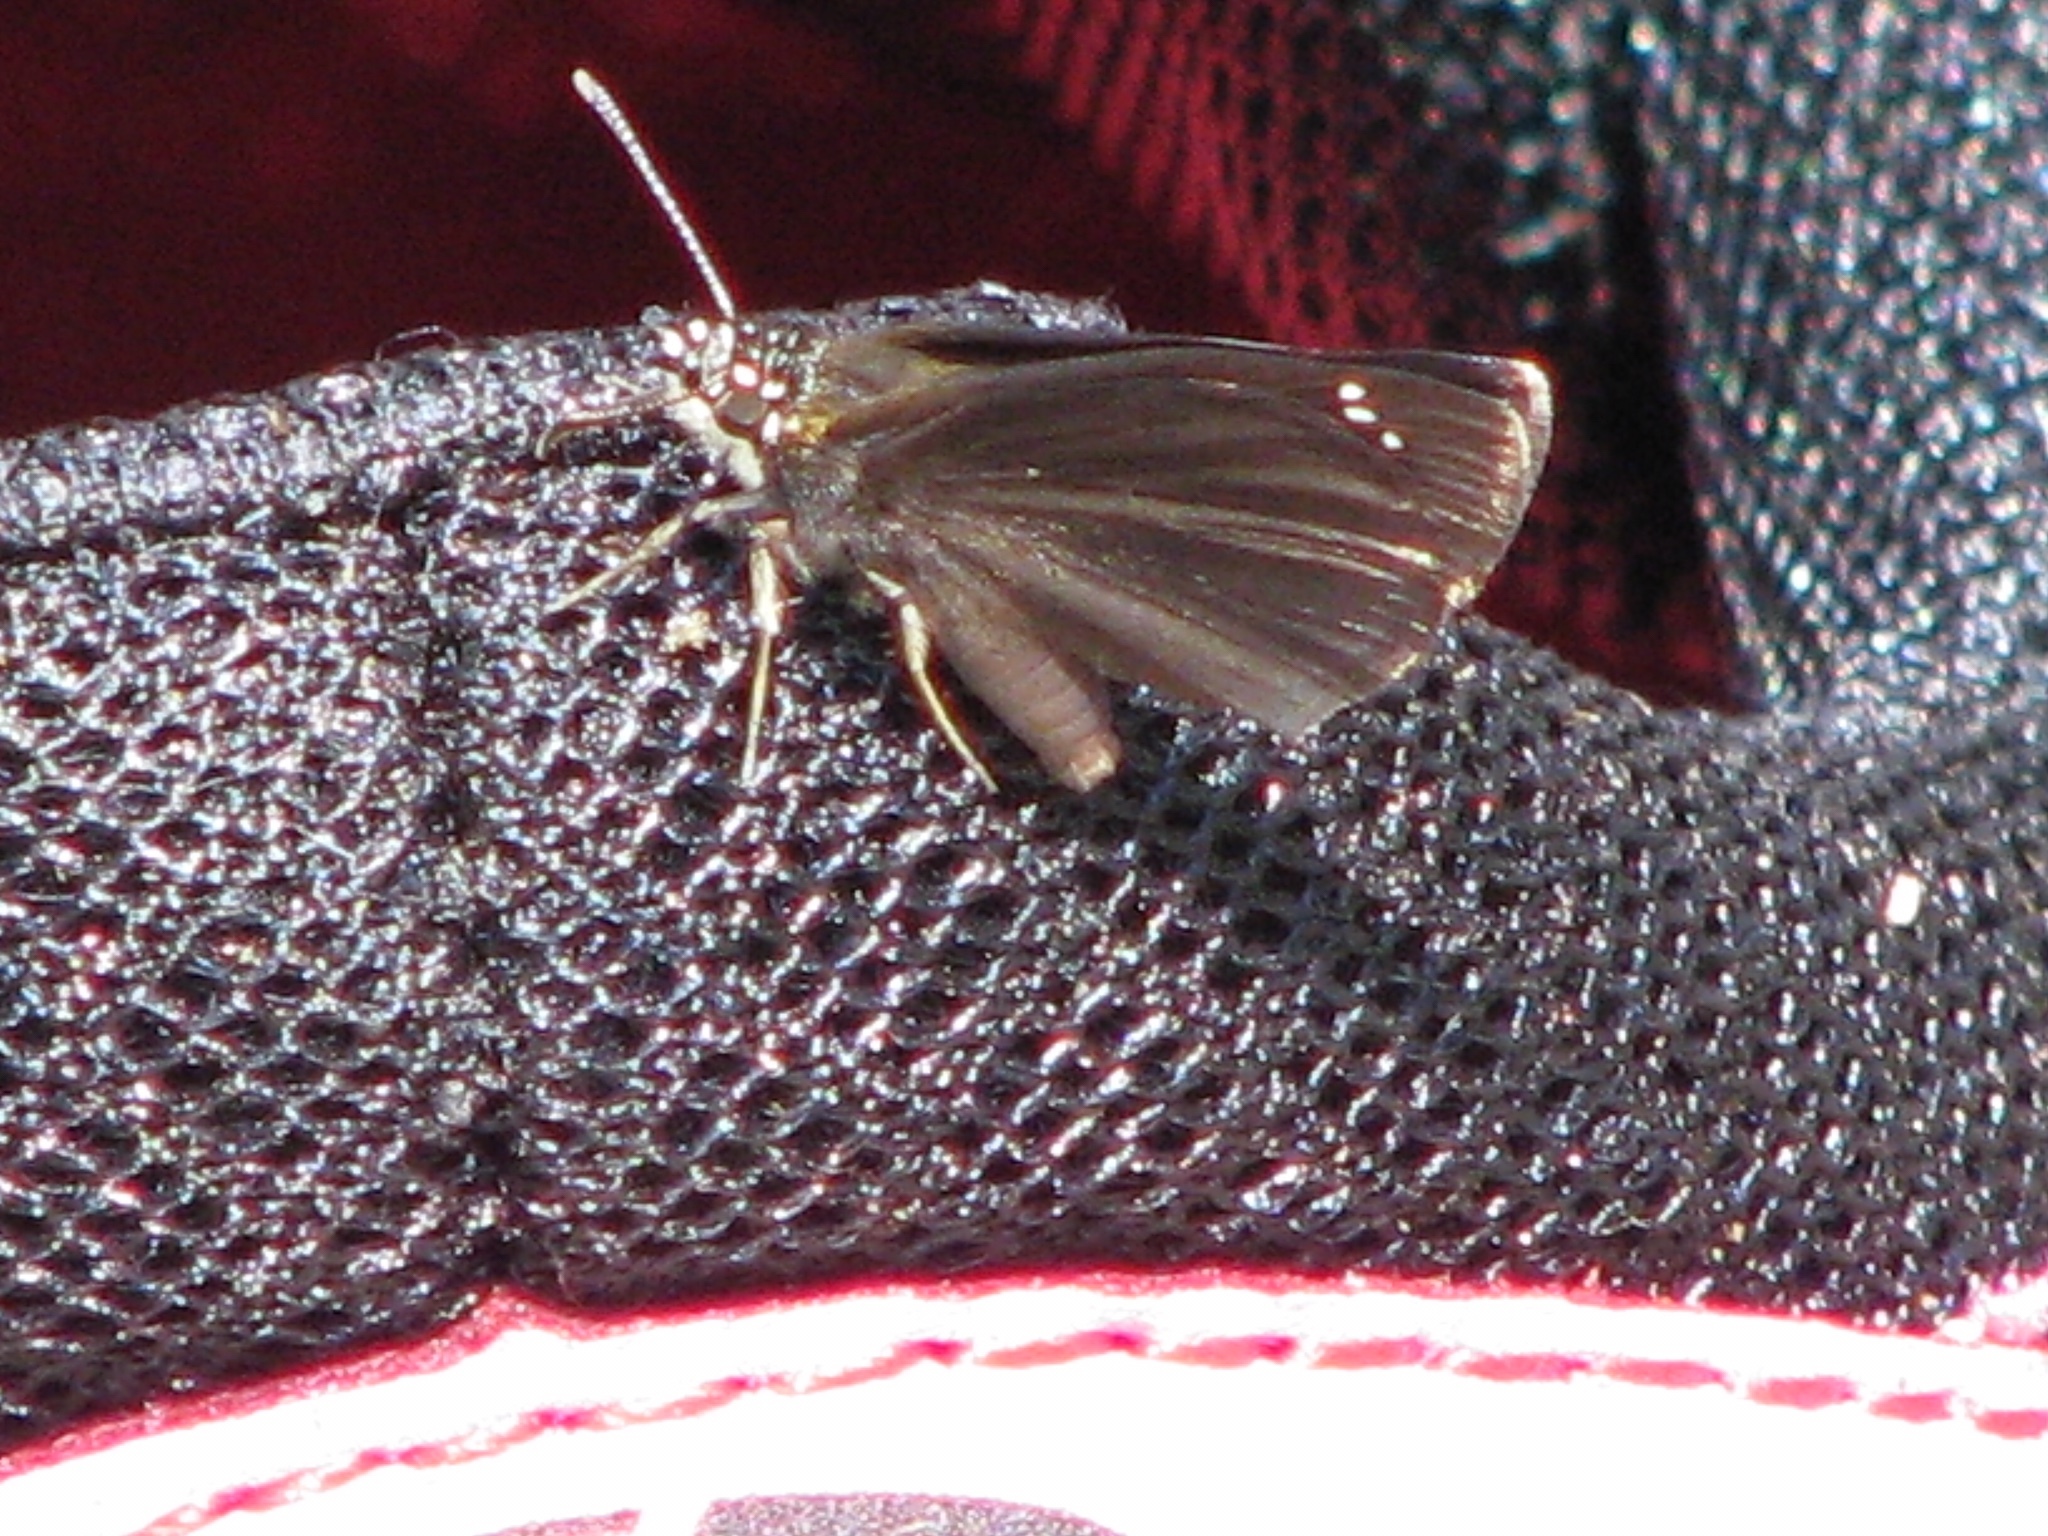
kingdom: Animalia
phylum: Arthropoda
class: Insecta
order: Lepidoptera
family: Hesperiidae
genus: Pholisora
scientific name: Pholisora catullus
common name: Common sootywing
